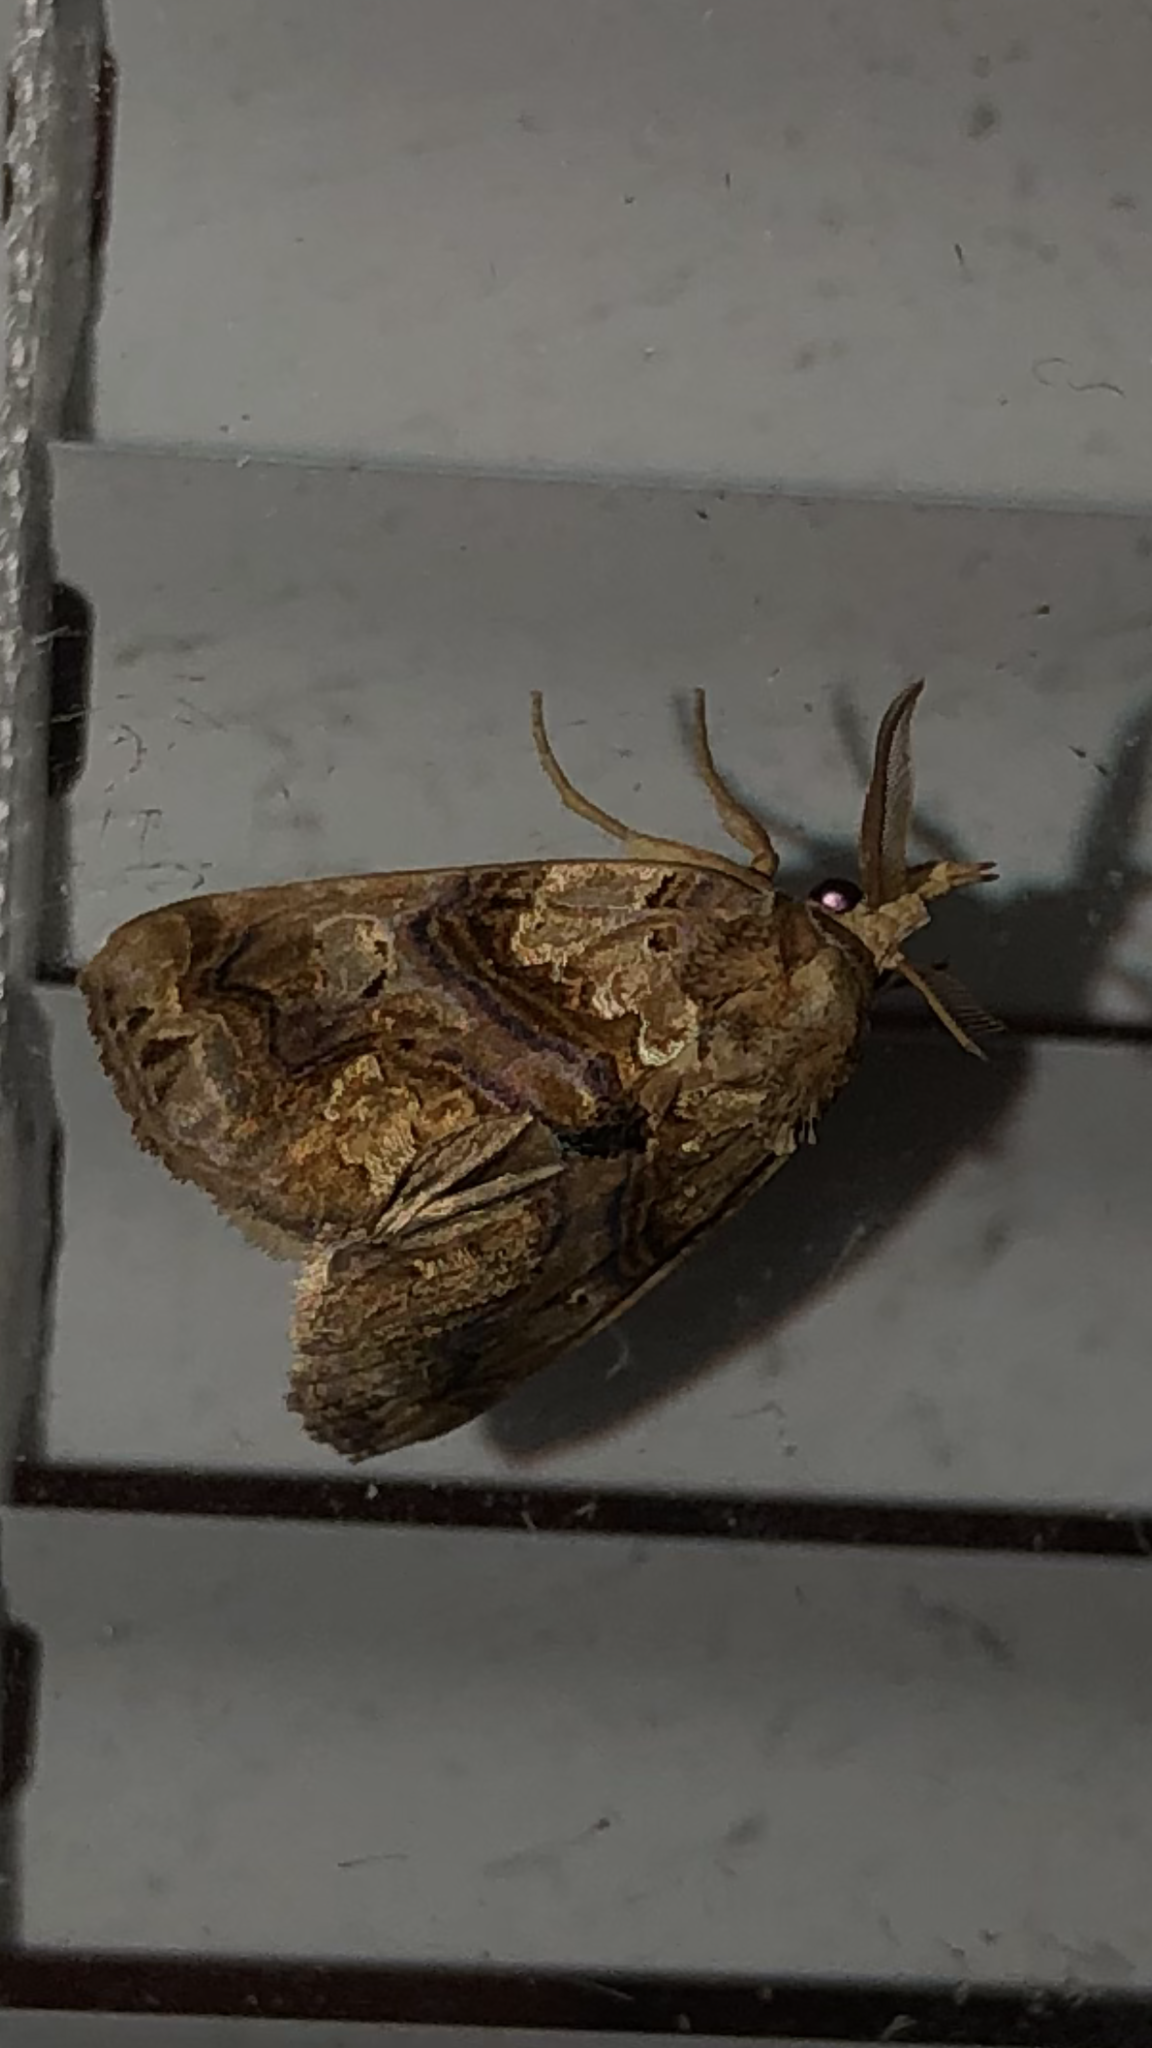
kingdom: Animalia
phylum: Arthropoda
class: Insecta
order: Lepidoptera
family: Erebidae
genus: Plusiodonta
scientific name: Plusiodonta compressipalpis
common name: Moonseed moth
